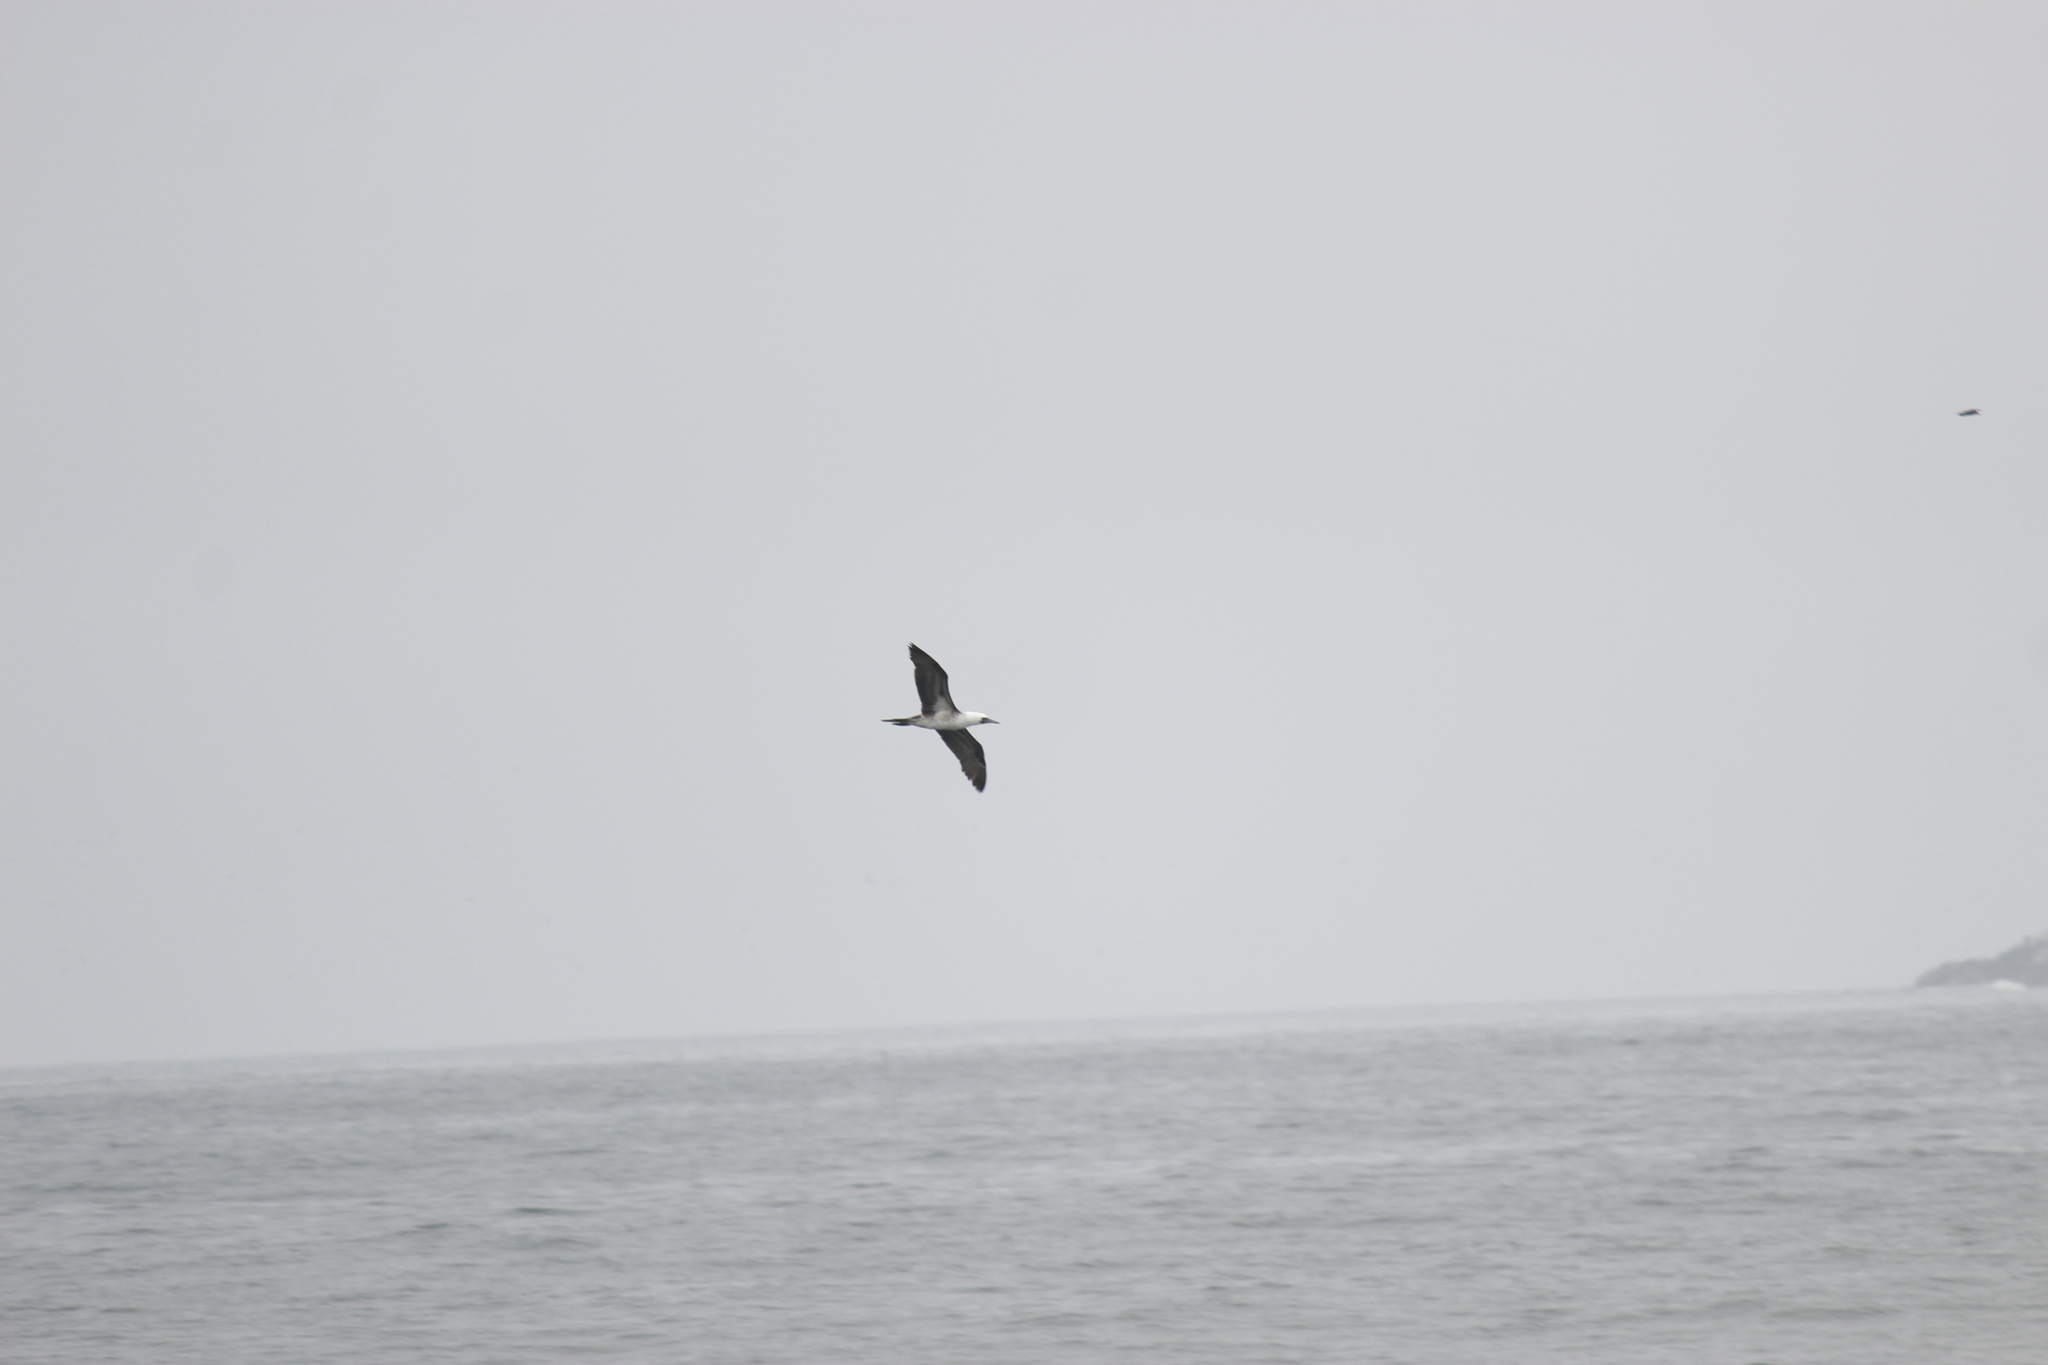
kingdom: Animalia
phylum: Chordata
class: Aves
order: Suliformes
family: Sulidae
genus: Sula
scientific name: Sula variegata
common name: Peruvian booby
